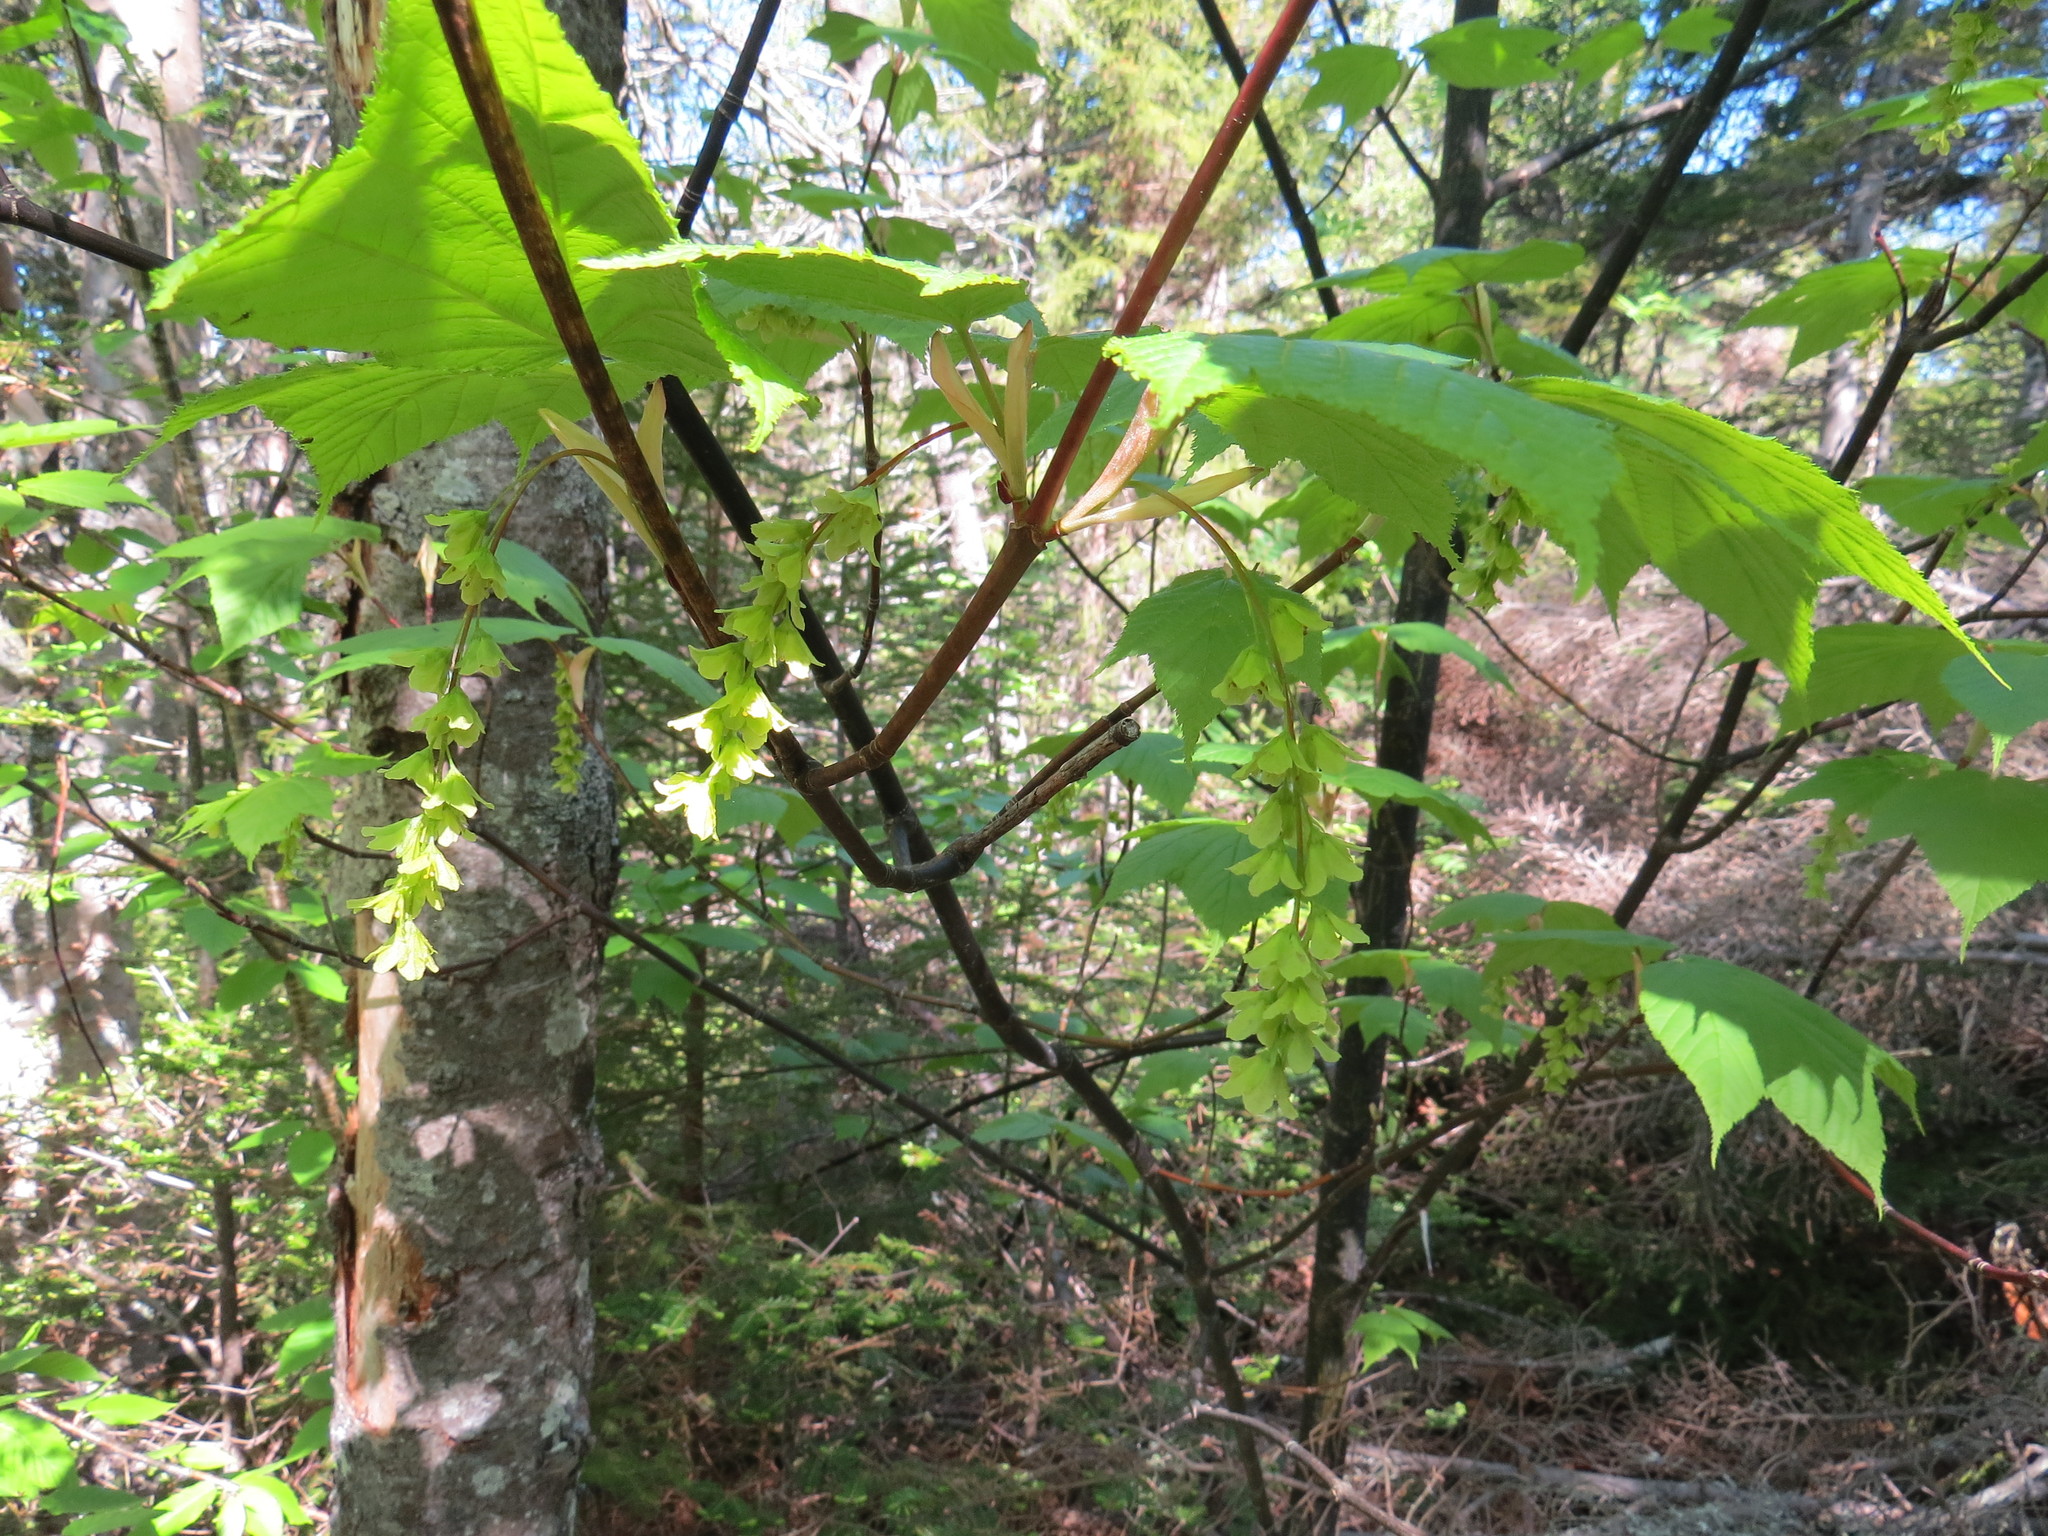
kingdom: Plantae
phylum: Tracheophyta
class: Magnoliopsida
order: Sapindales
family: Sapindaceae
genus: Acer
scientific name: Acer pensylvanicum
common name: Moosewood
